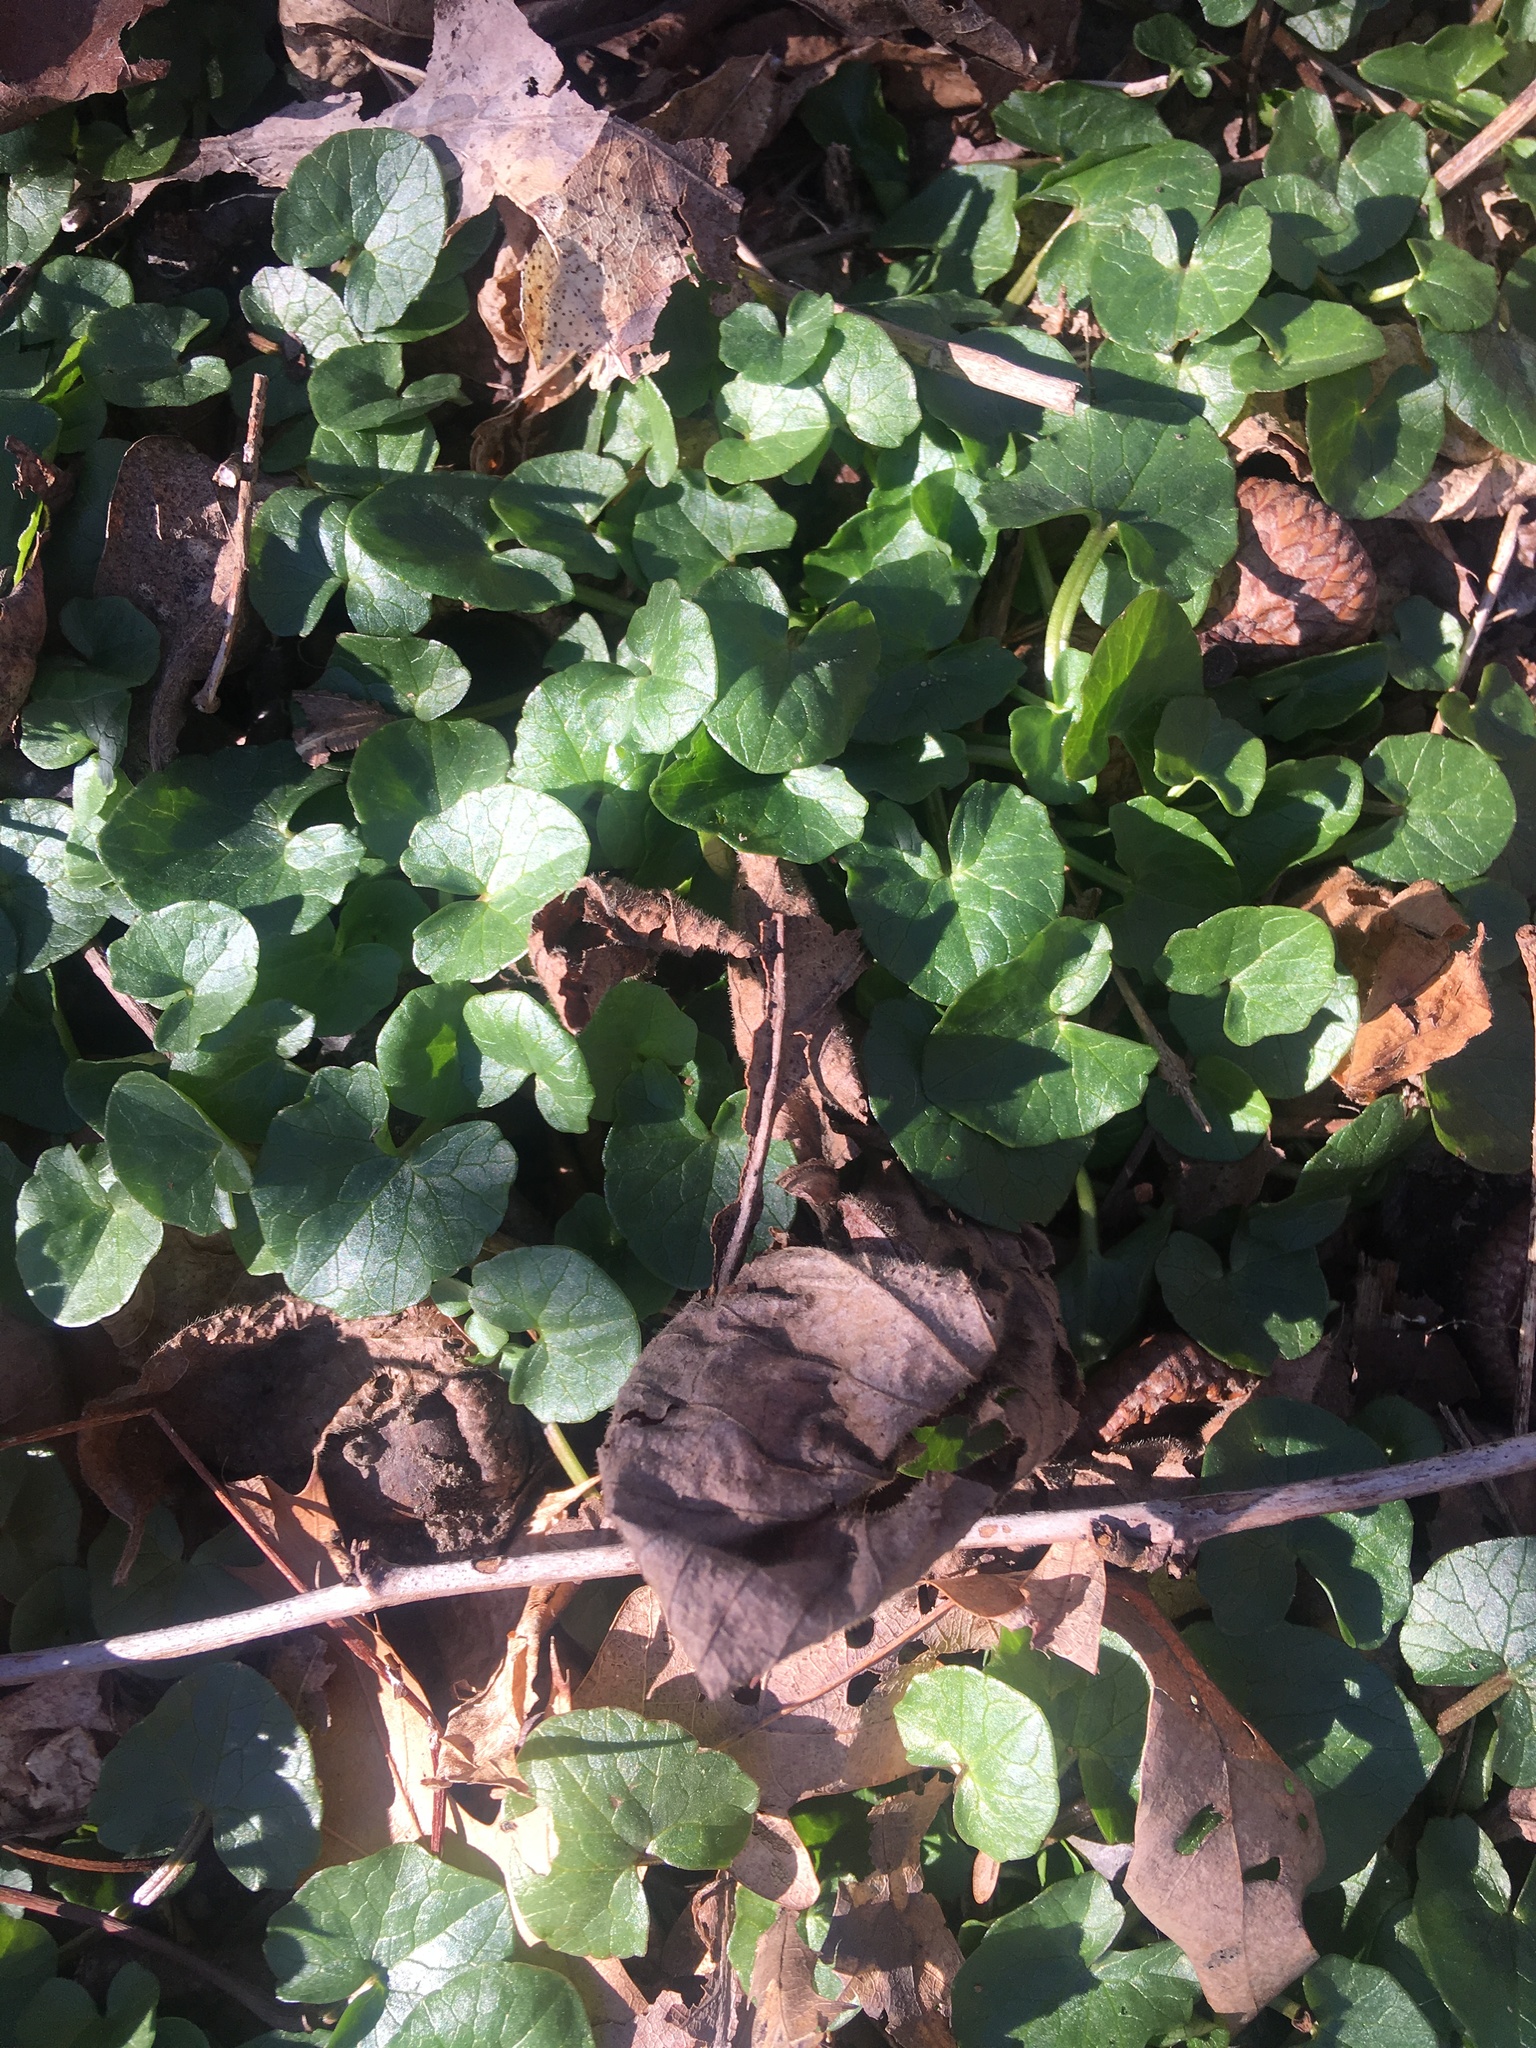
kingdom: Plantae
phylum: Tracheophyta
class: Magnoliopsida
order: Ranunculales
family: Ranunculaceae
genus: Ficaria
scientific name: Ficaria verna
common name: Lesser celandine
